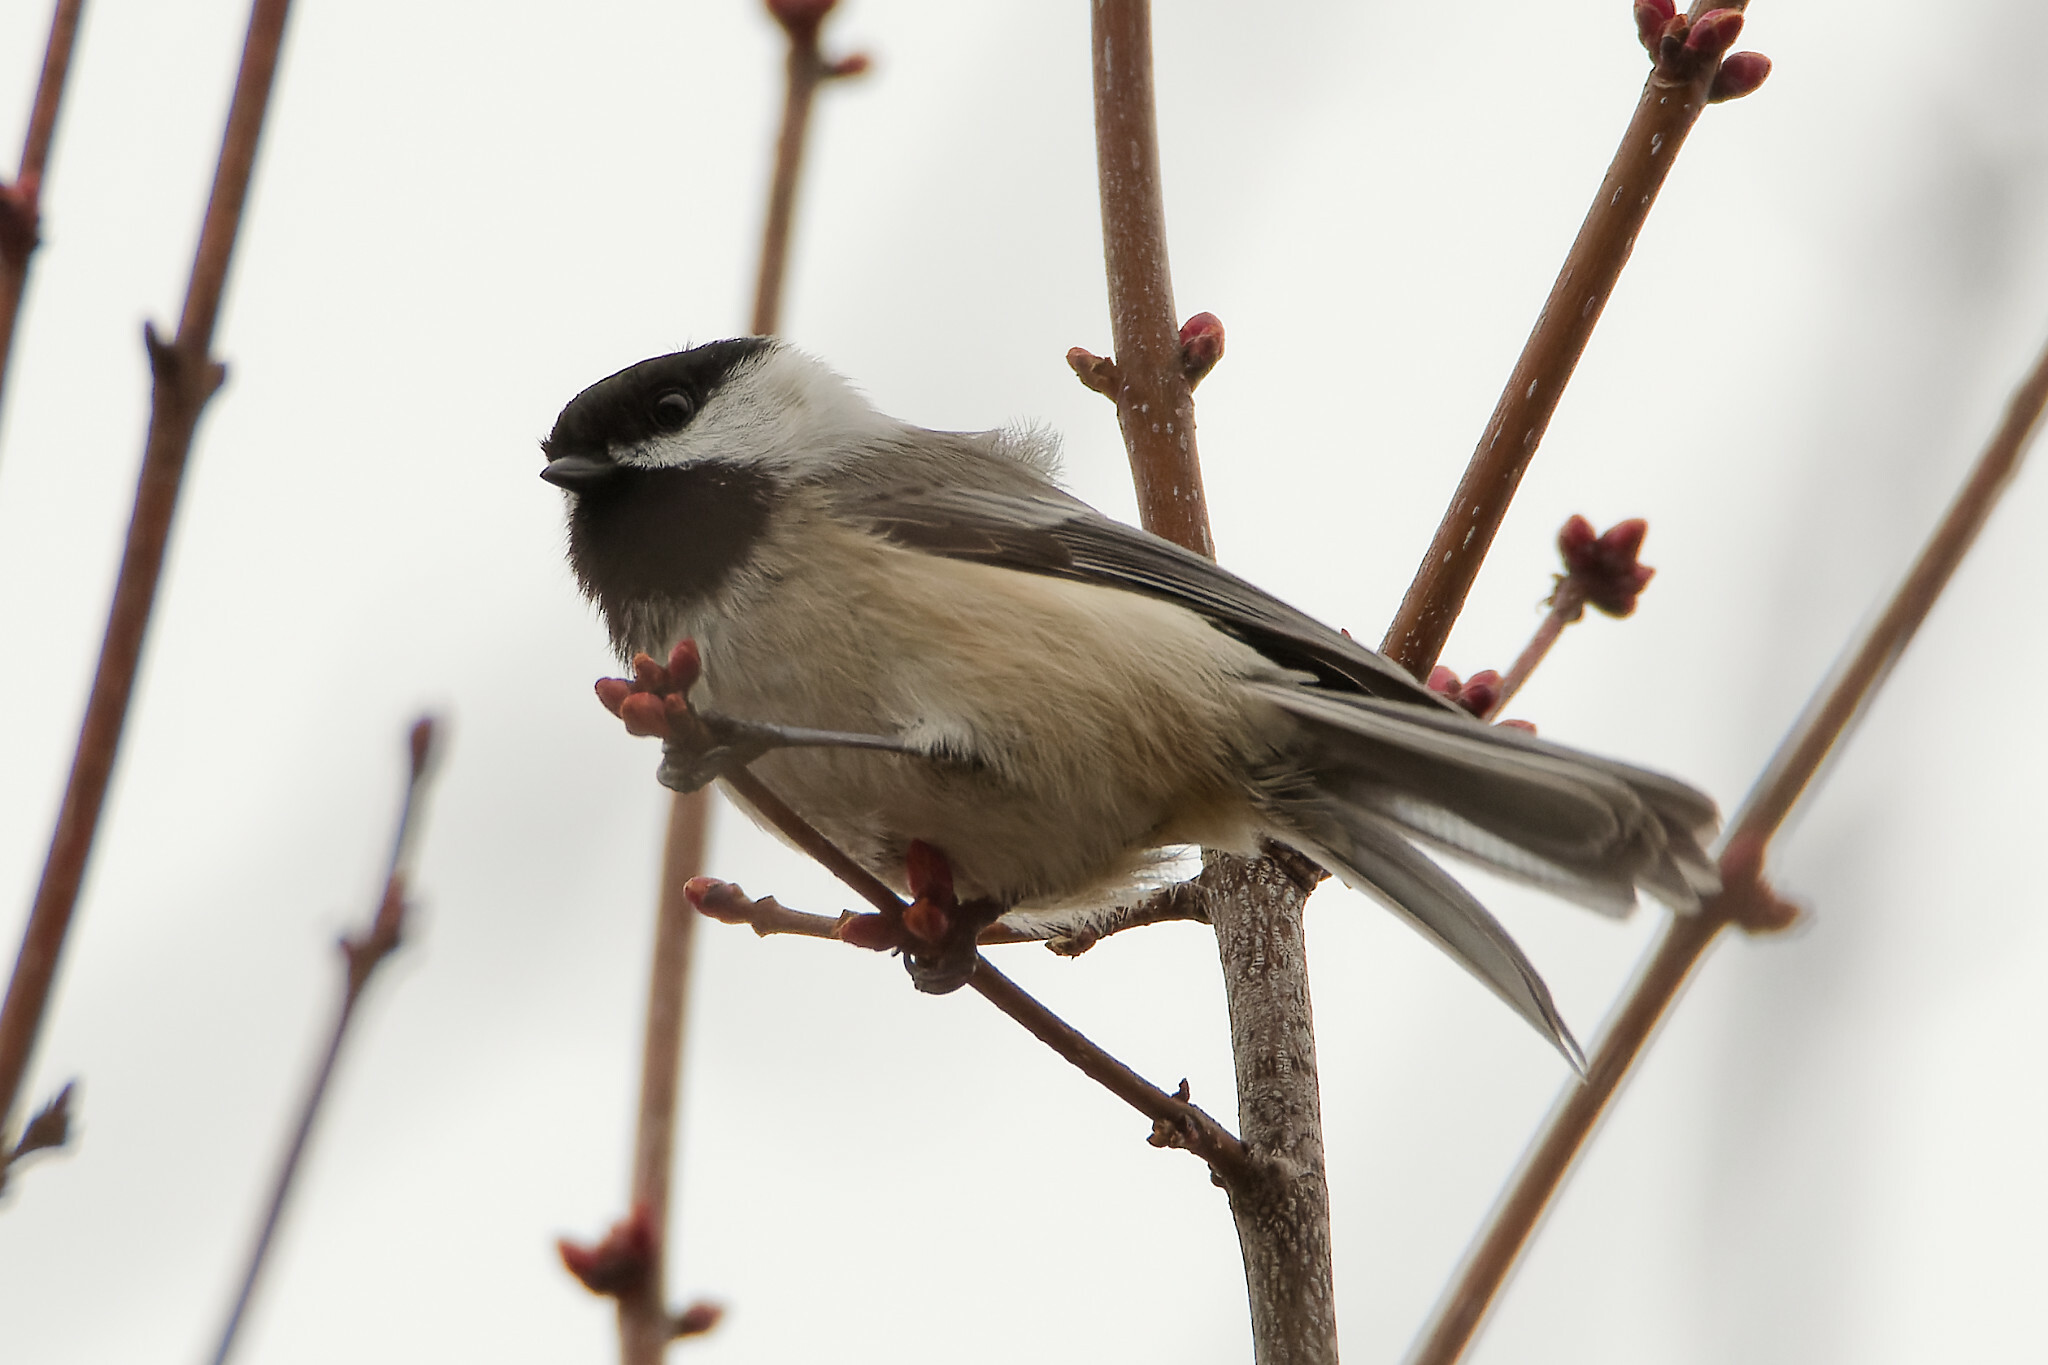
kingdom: Animalia
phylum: Chordata
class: Aves
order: Passeriformes
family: Paridae
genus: Poecile
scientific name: Poecile atricapillus
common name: Black-capped chickadee
